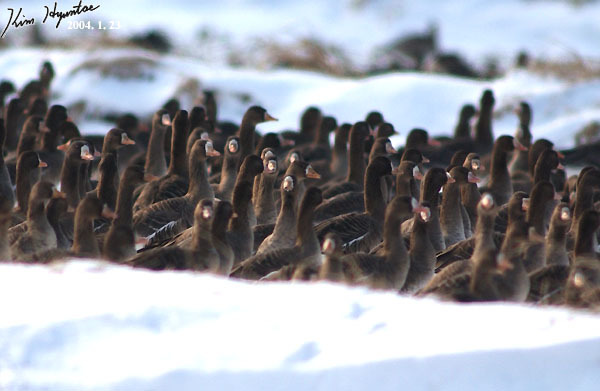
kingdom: Animalia
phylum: Chordata
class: Aves
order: Anseriformes
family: Anatidae
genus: Anser
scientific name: Anser albifrons
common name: Greater white-fronted goose
